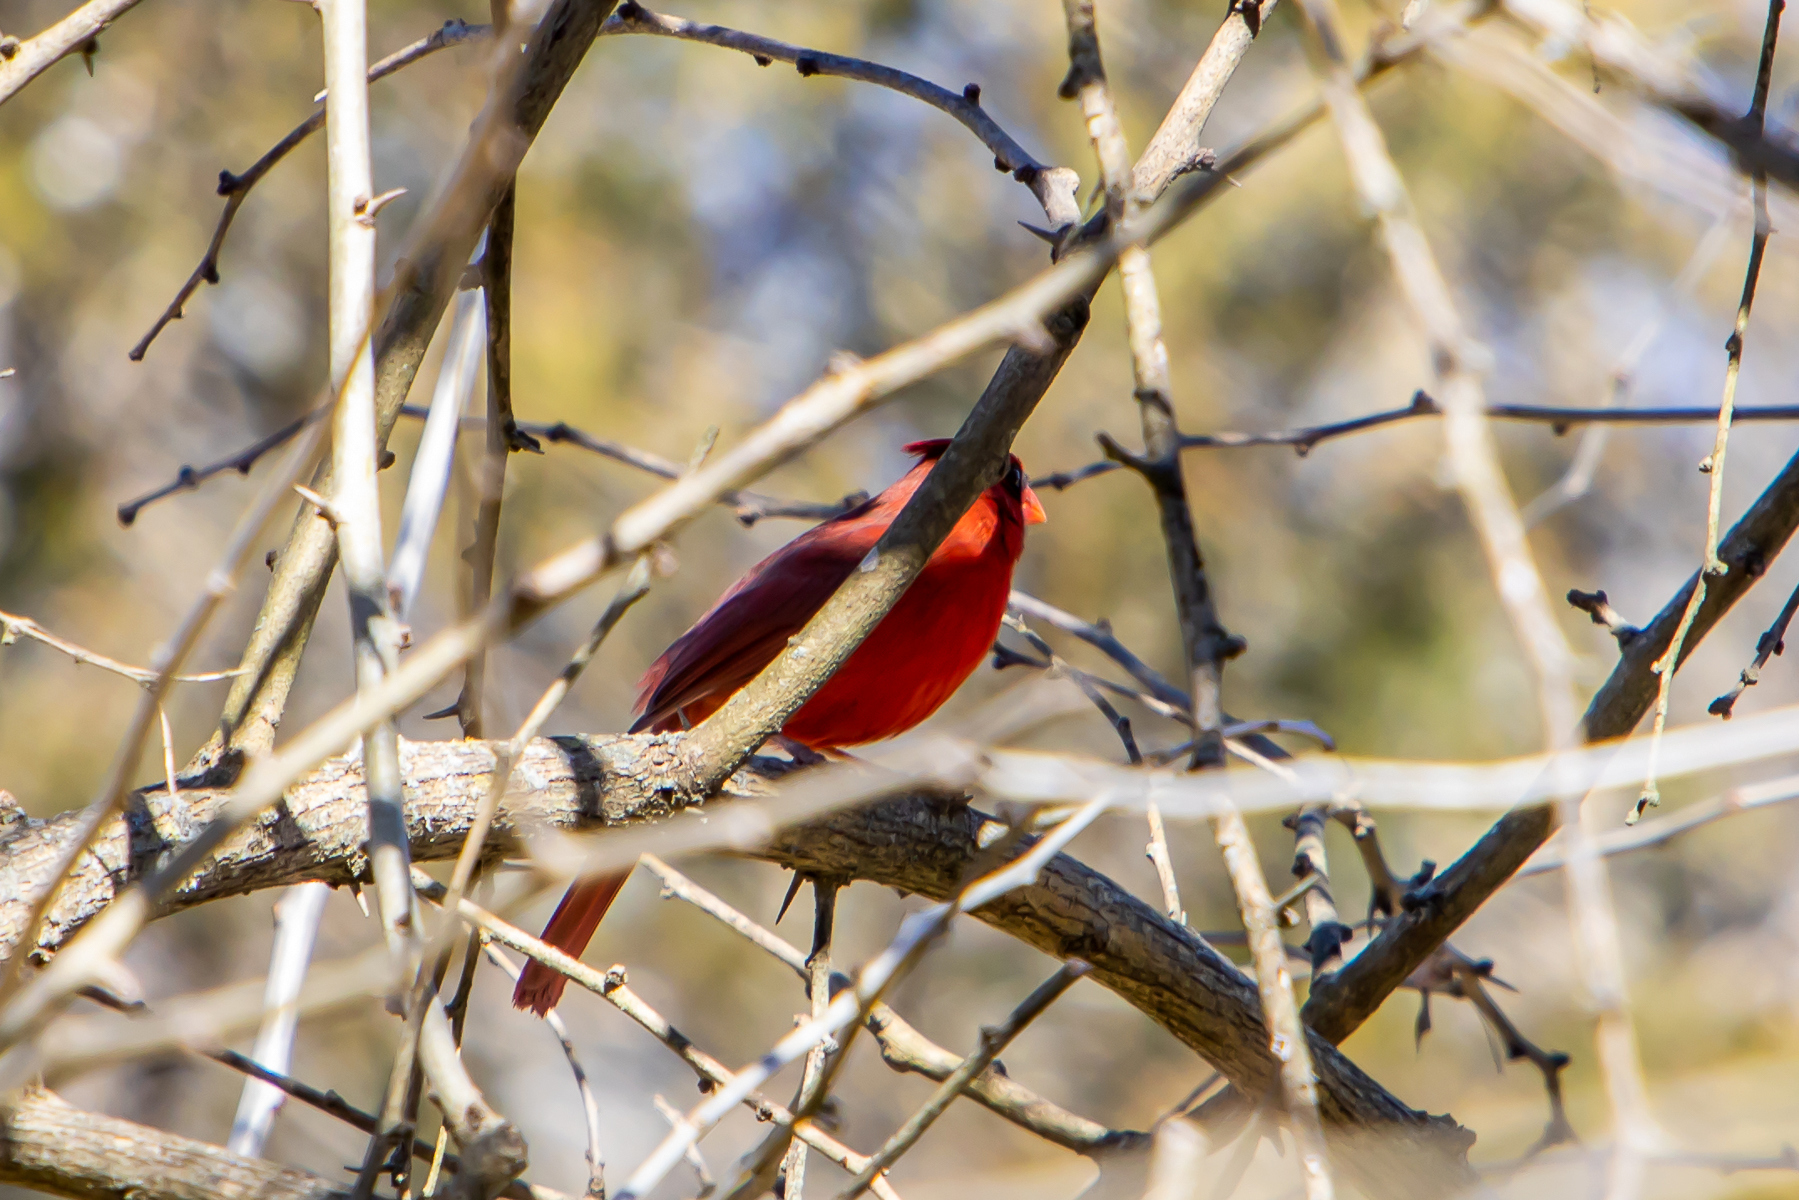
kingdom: Animalia
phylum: Chordata
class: Aves
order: Passeriformes
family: Cardinalidae
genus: Cardinalis
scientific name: Cardinalis cardinalis
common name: Northern cardinal
